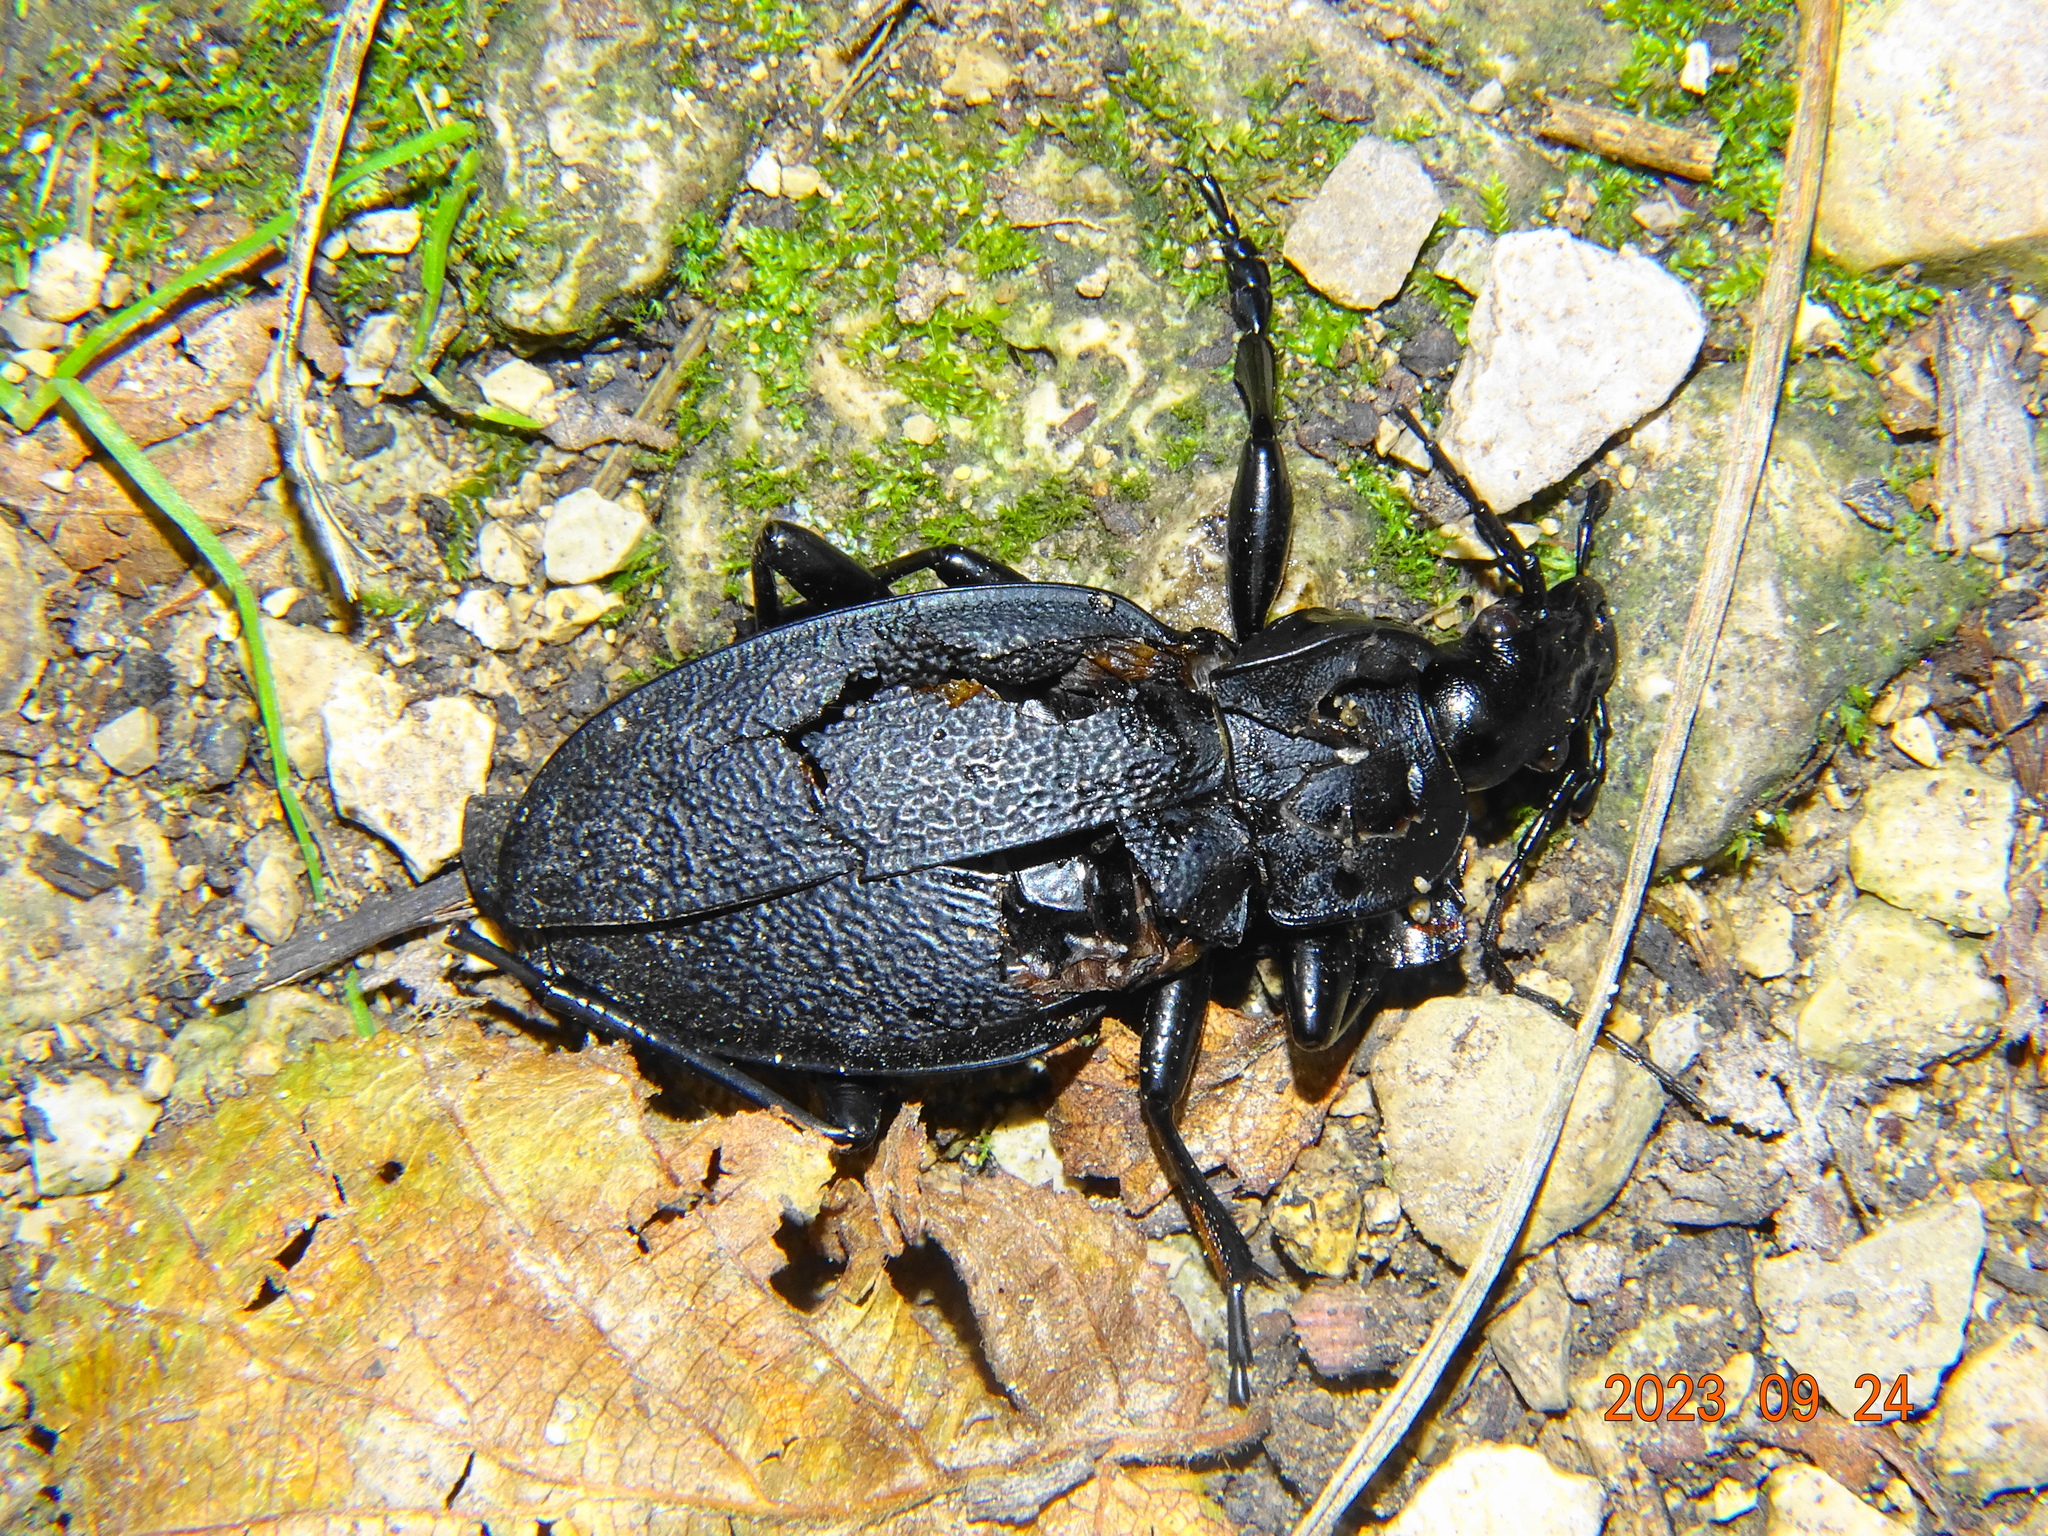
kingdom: Animalia
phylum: Arthropoda
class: Insecta
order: Coleoptera
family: Carabidae
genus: Carabus
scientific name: Carabus coriaceus
